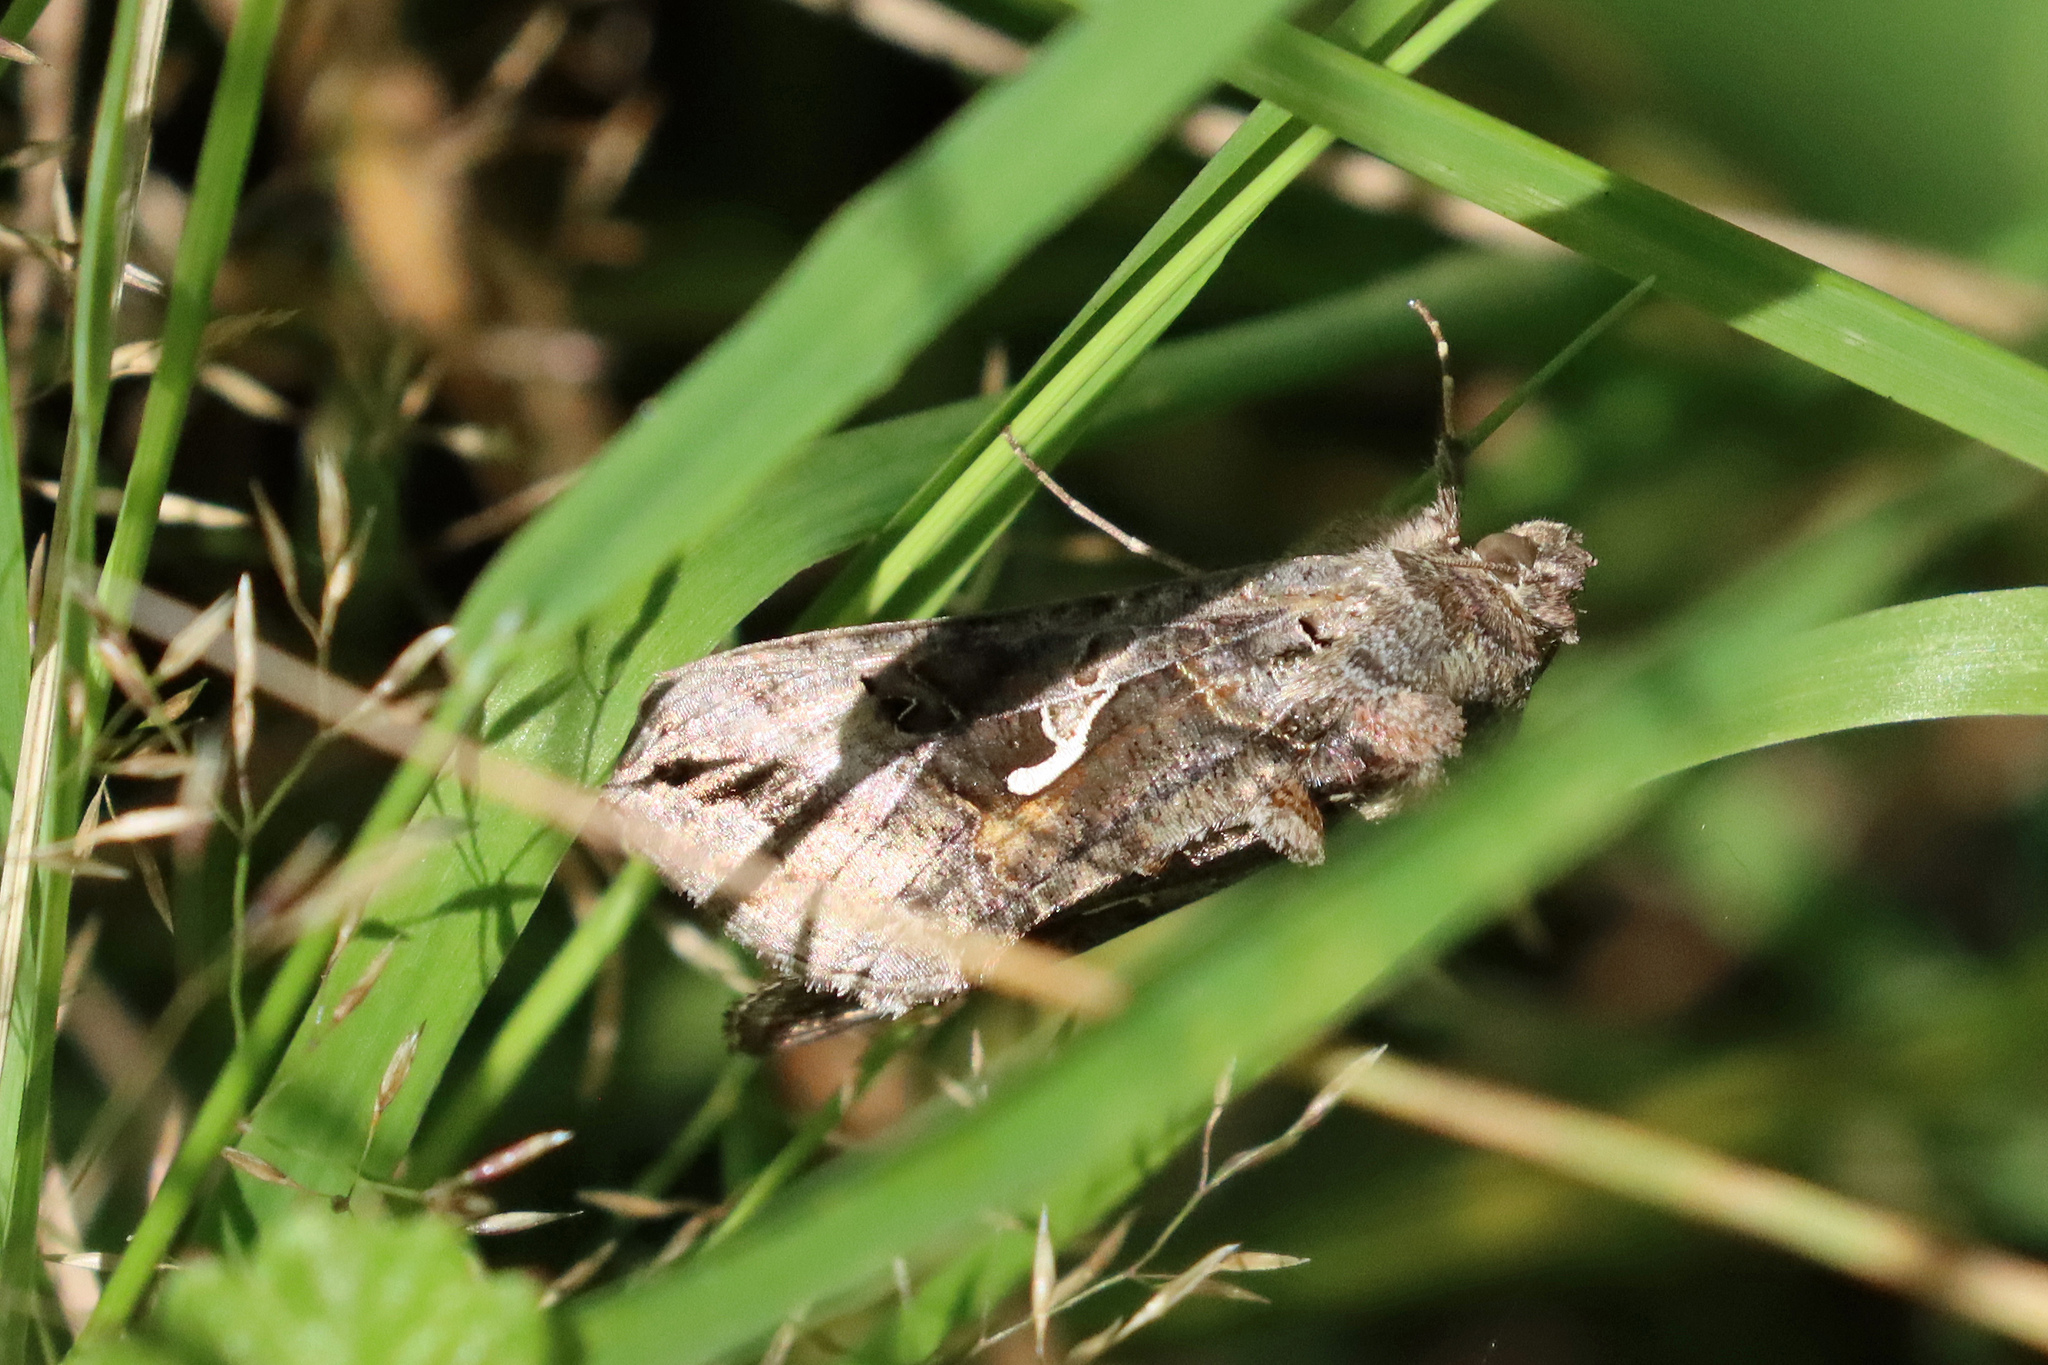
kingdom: Animalia
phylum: Arthropoda
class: Insecta
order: Lepidoptera
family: Noctuidae
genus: Autographa
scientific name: Autographa gamma
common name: Silver y
